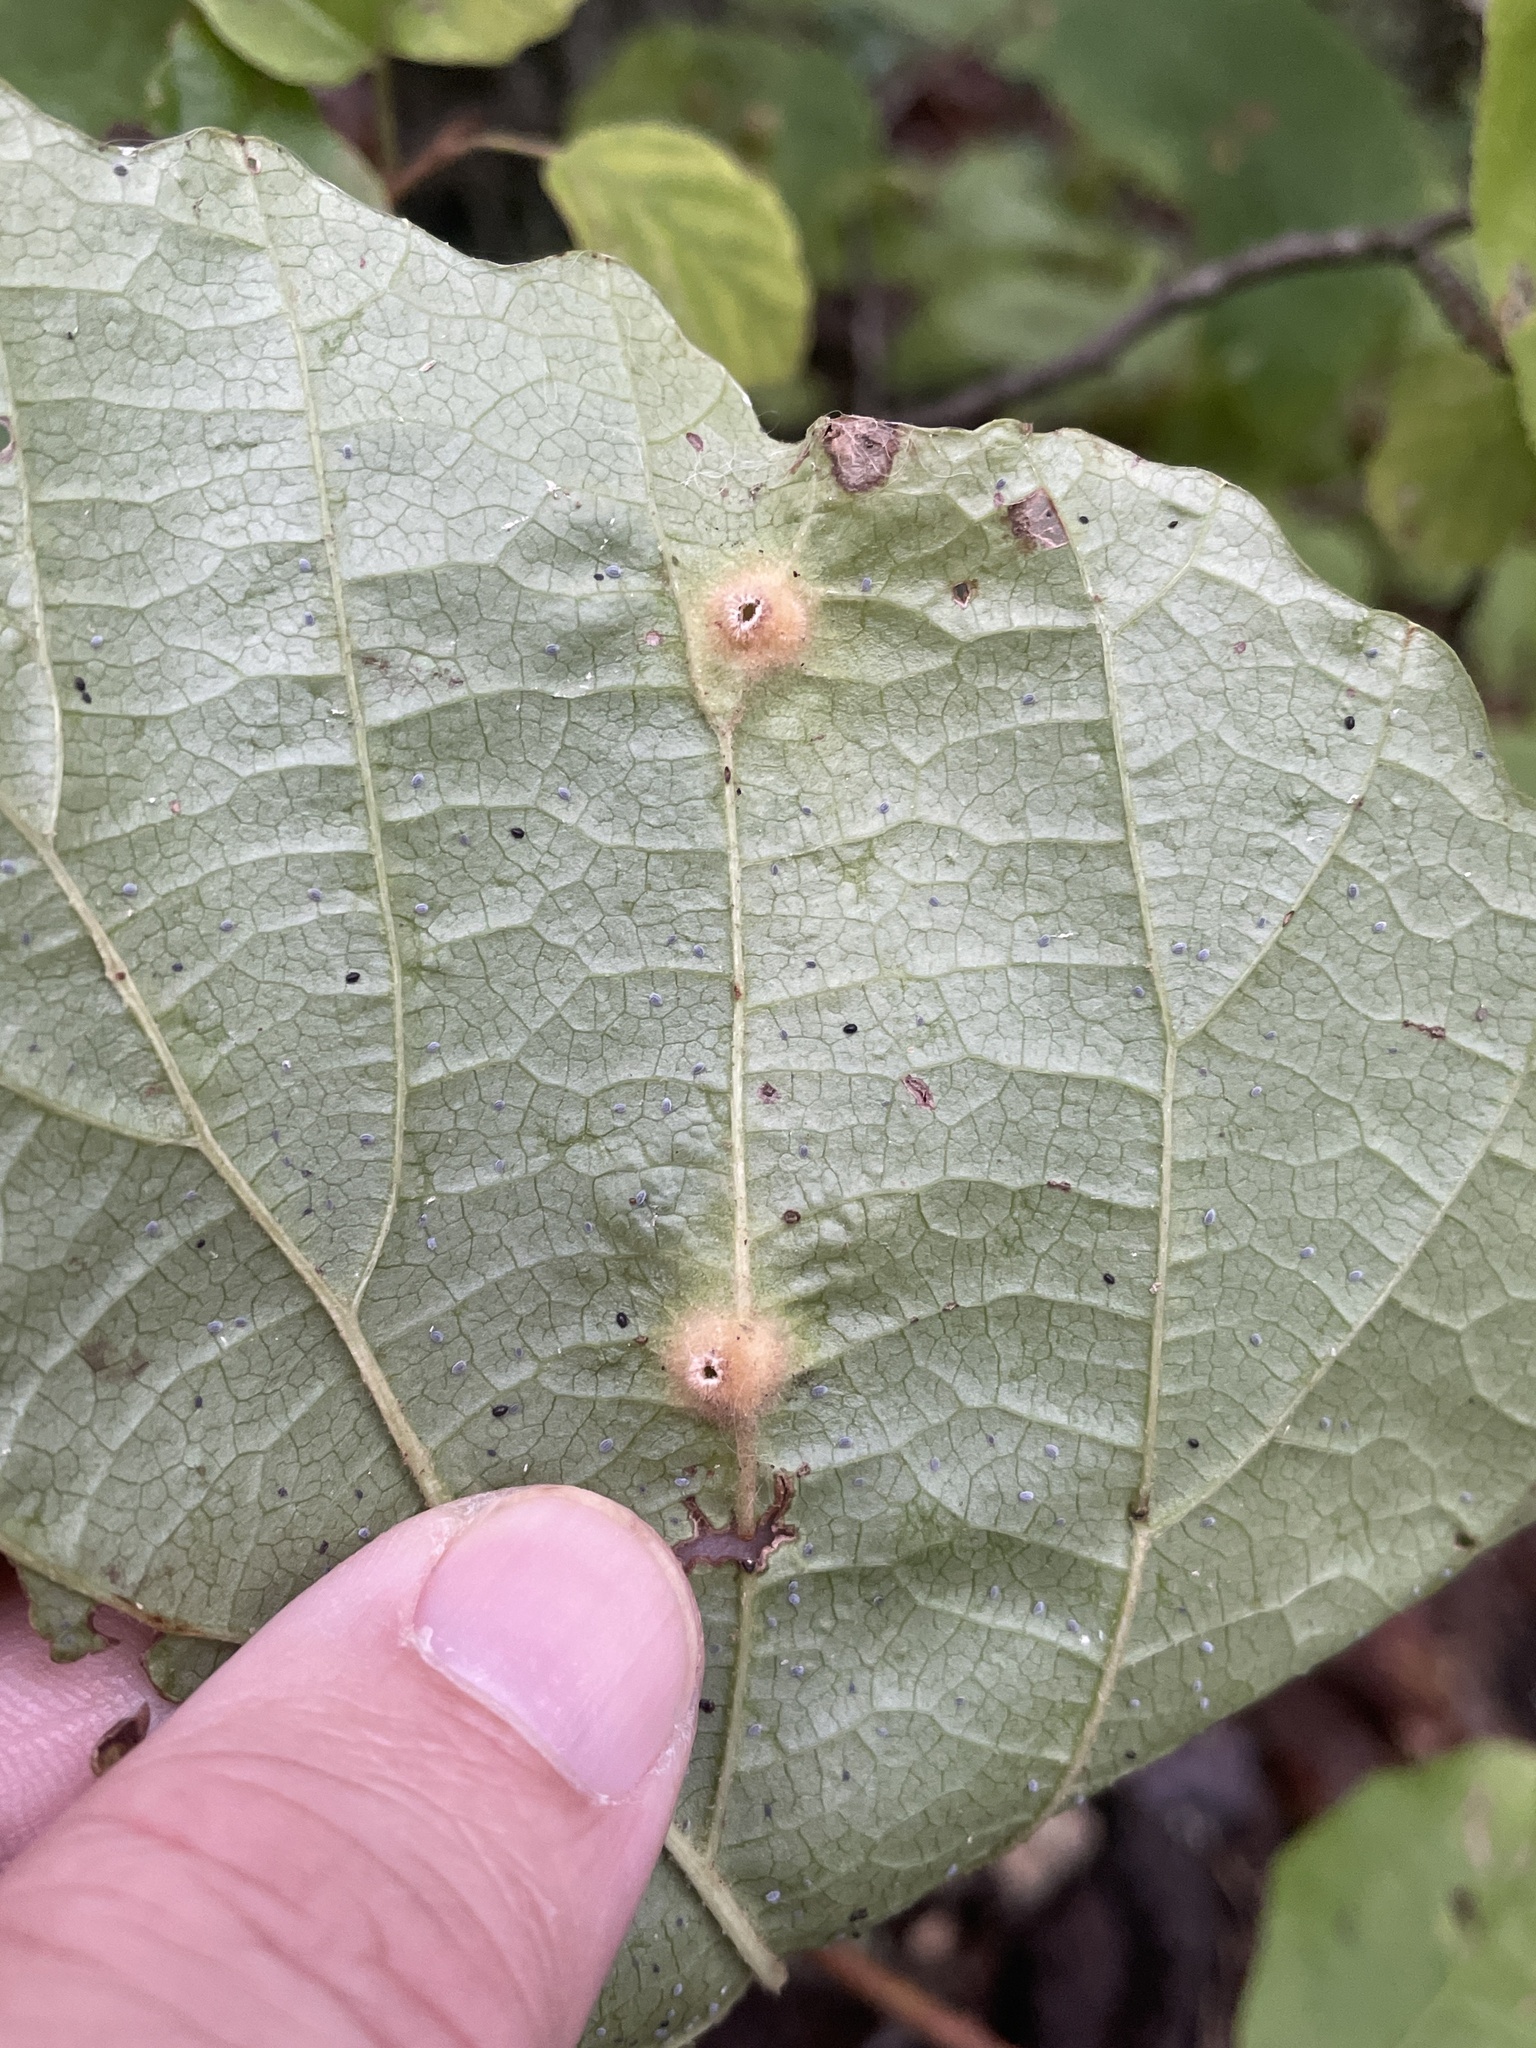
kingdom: Animalia
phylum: Arthropoda
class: Insecta
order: Hemiptera
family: Aphididae
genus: Hormaphis
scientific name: Hormaphis hamamelidis
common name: Witch-hazel cone gall aphid
